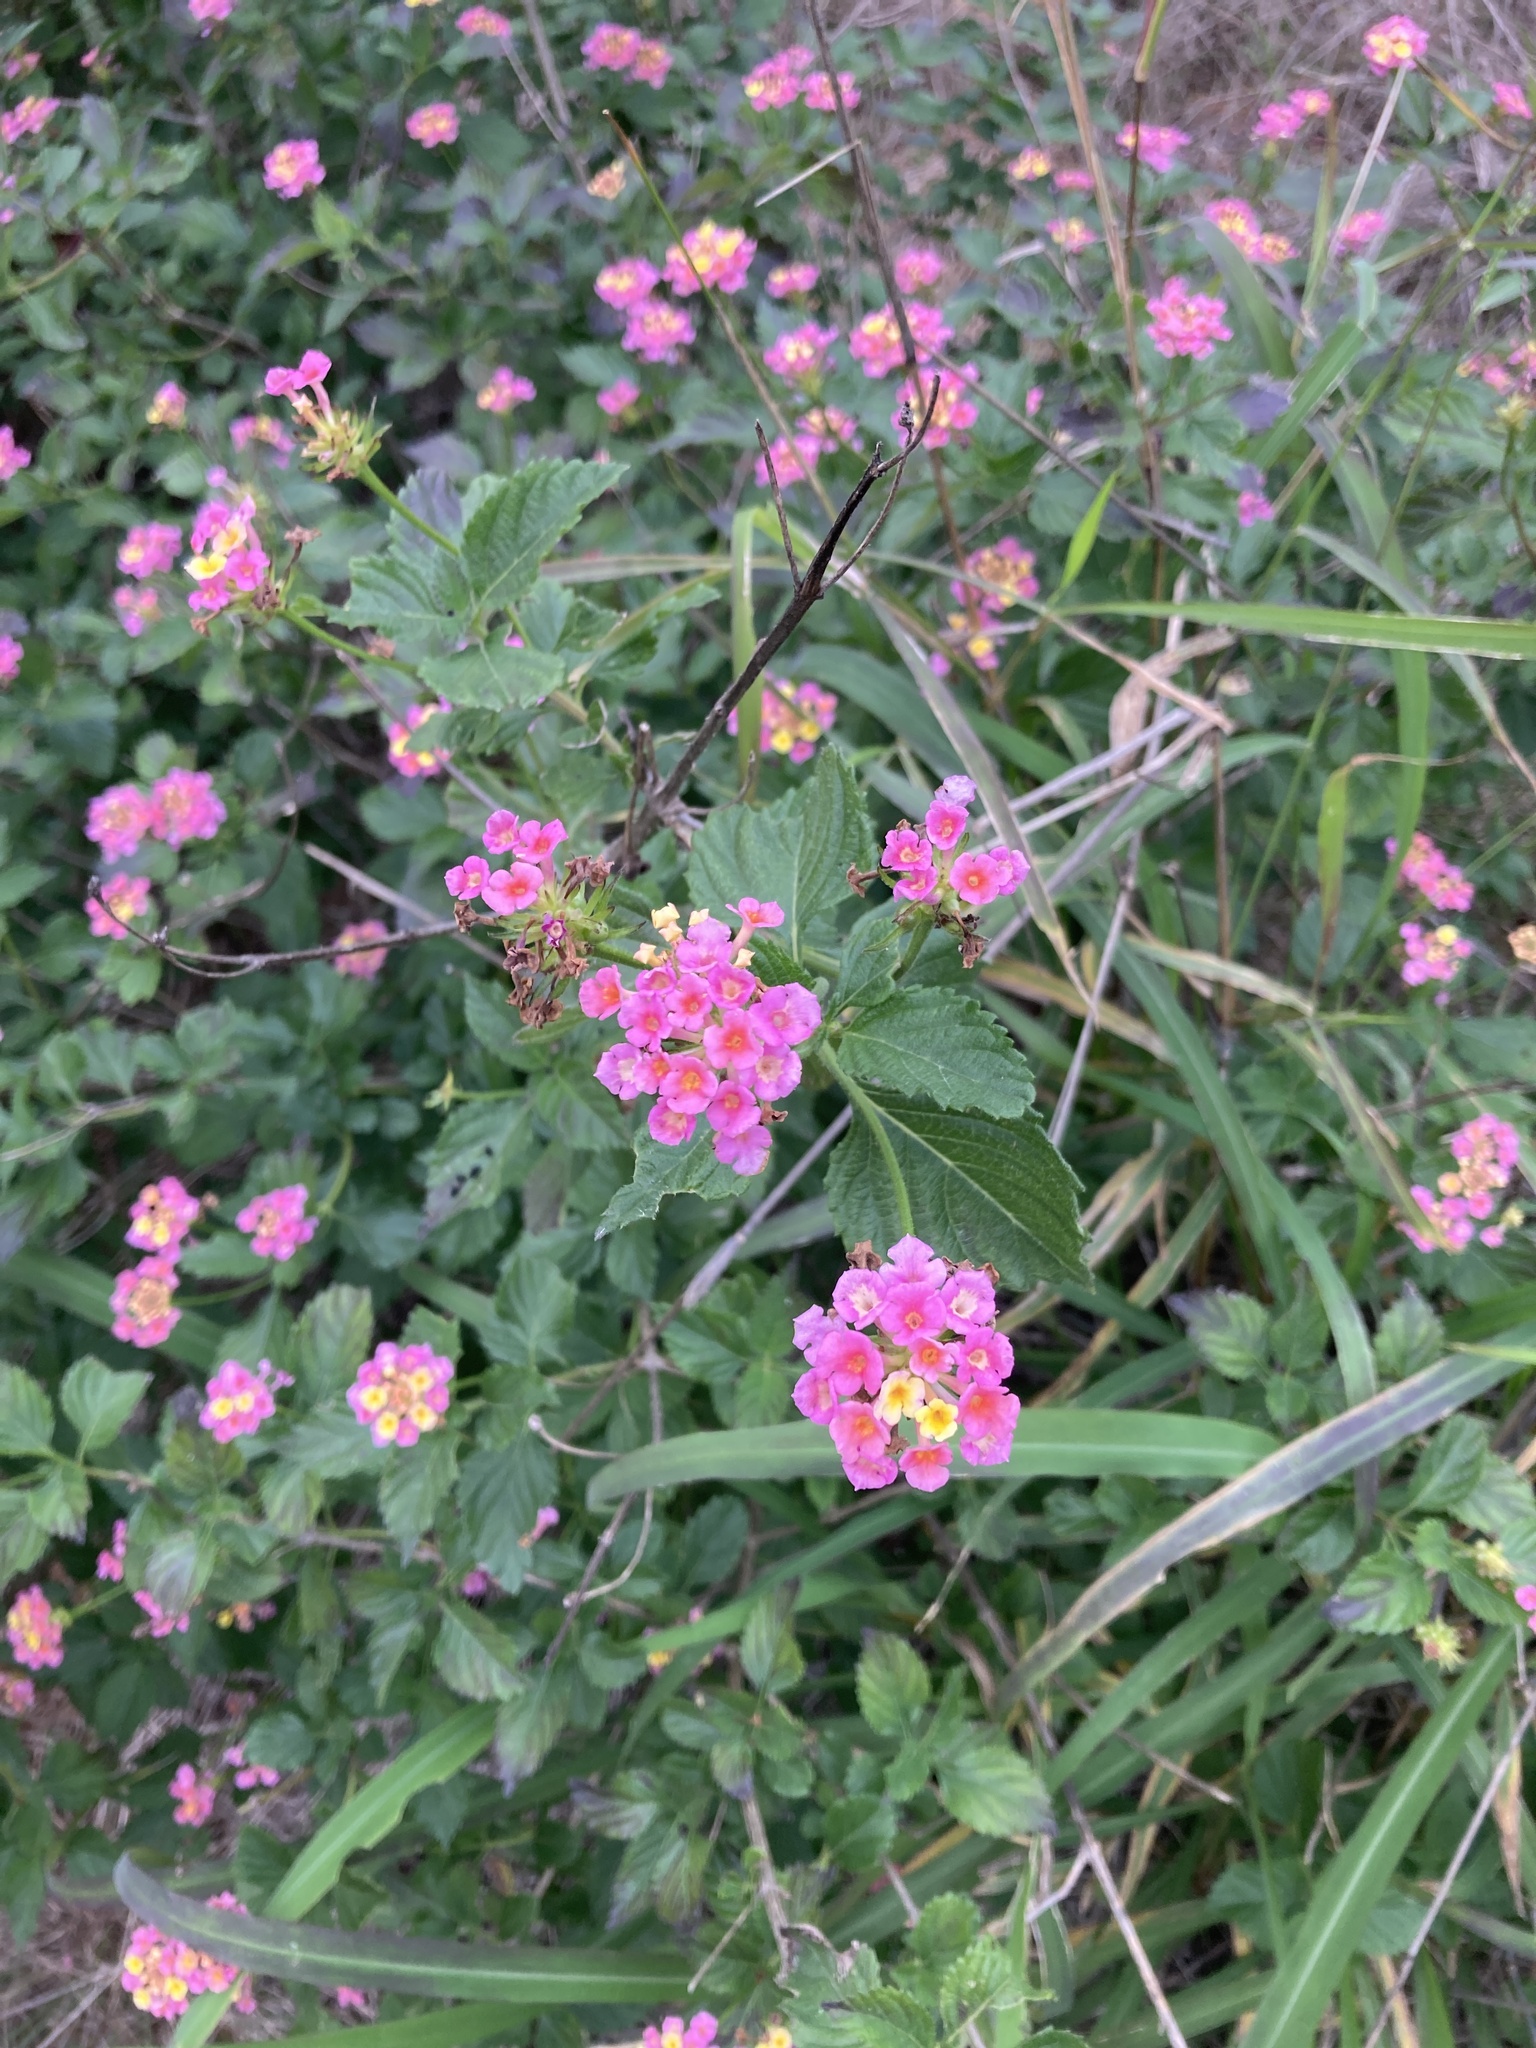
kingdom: Plantae
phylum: Tracheophyta
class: Magnoliopsida
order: Lamiales
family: Verbenaceae
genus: Lantana
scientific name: Lantana strigocamara
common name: Lantana
